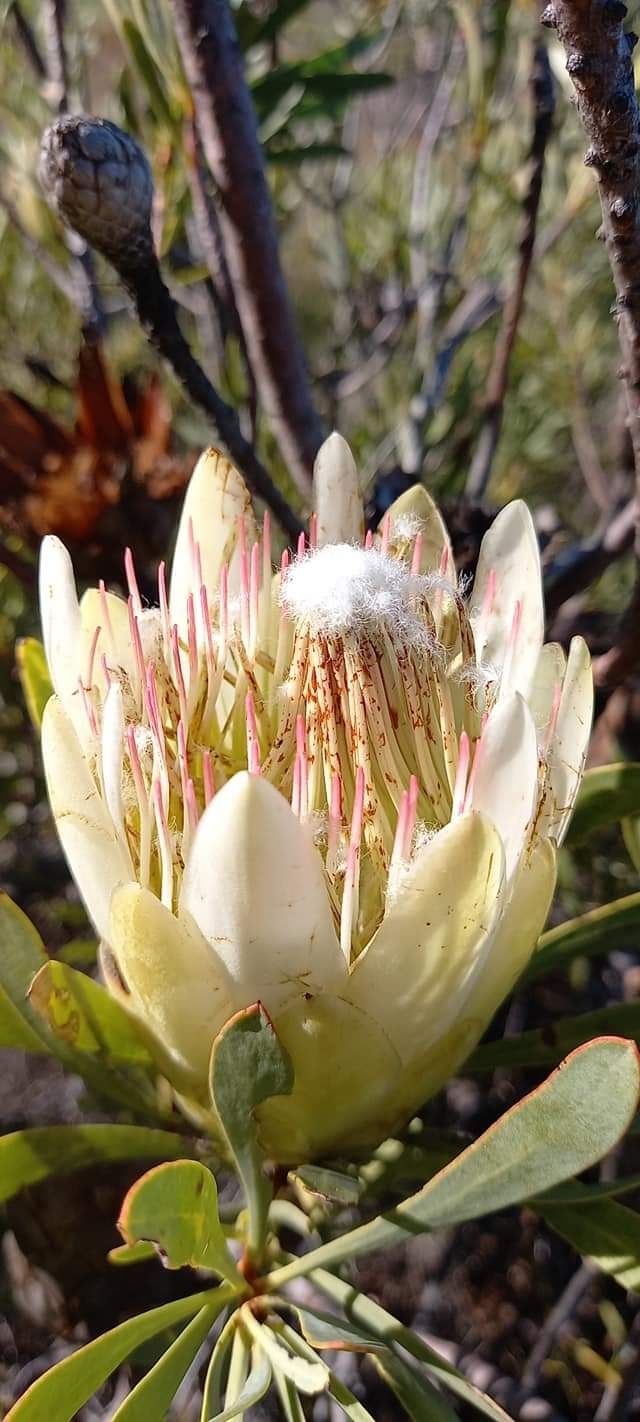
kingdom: Plantae
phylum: Tracheophyta
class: Magnoliopsida
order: Proteales
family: Proteaceae
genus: Protea
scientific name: Protea repens
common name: Sugarbush
